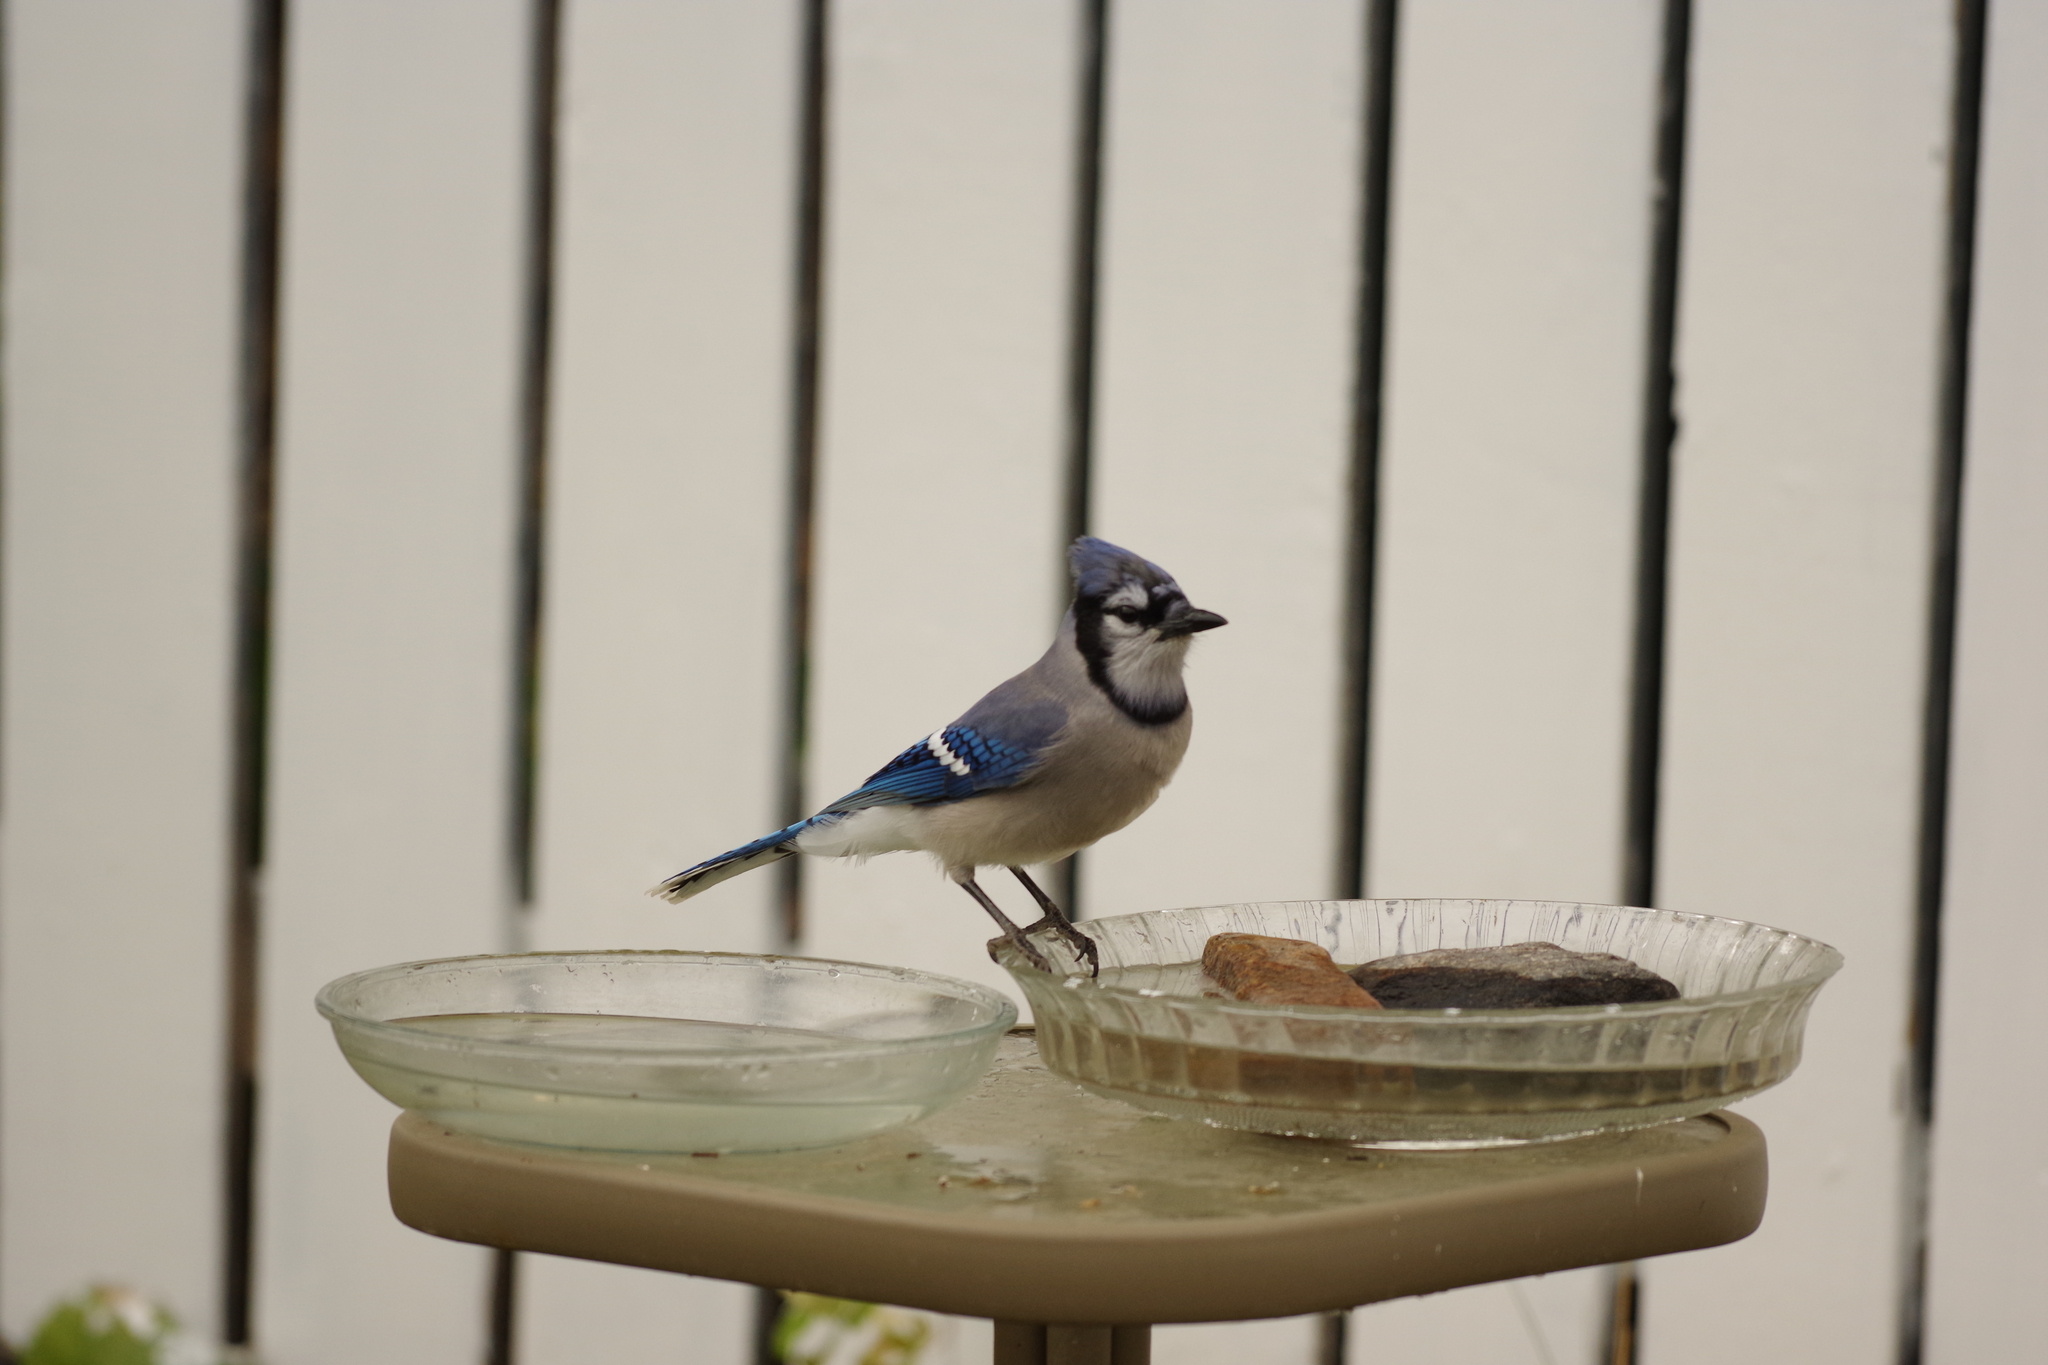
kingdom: Animalia
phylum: Chordata
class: Aves
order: Passeriformes
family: Corvidae
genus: Cyanocitta
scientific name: Cyanocitta cristata
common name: Blue jay
